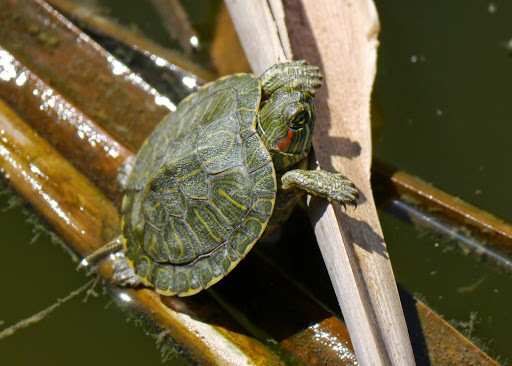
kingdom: Animalia
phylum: Chordata
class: Testudines
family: Emydidae
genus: Trachemys
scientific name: Trachemys scripta
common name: Slider
